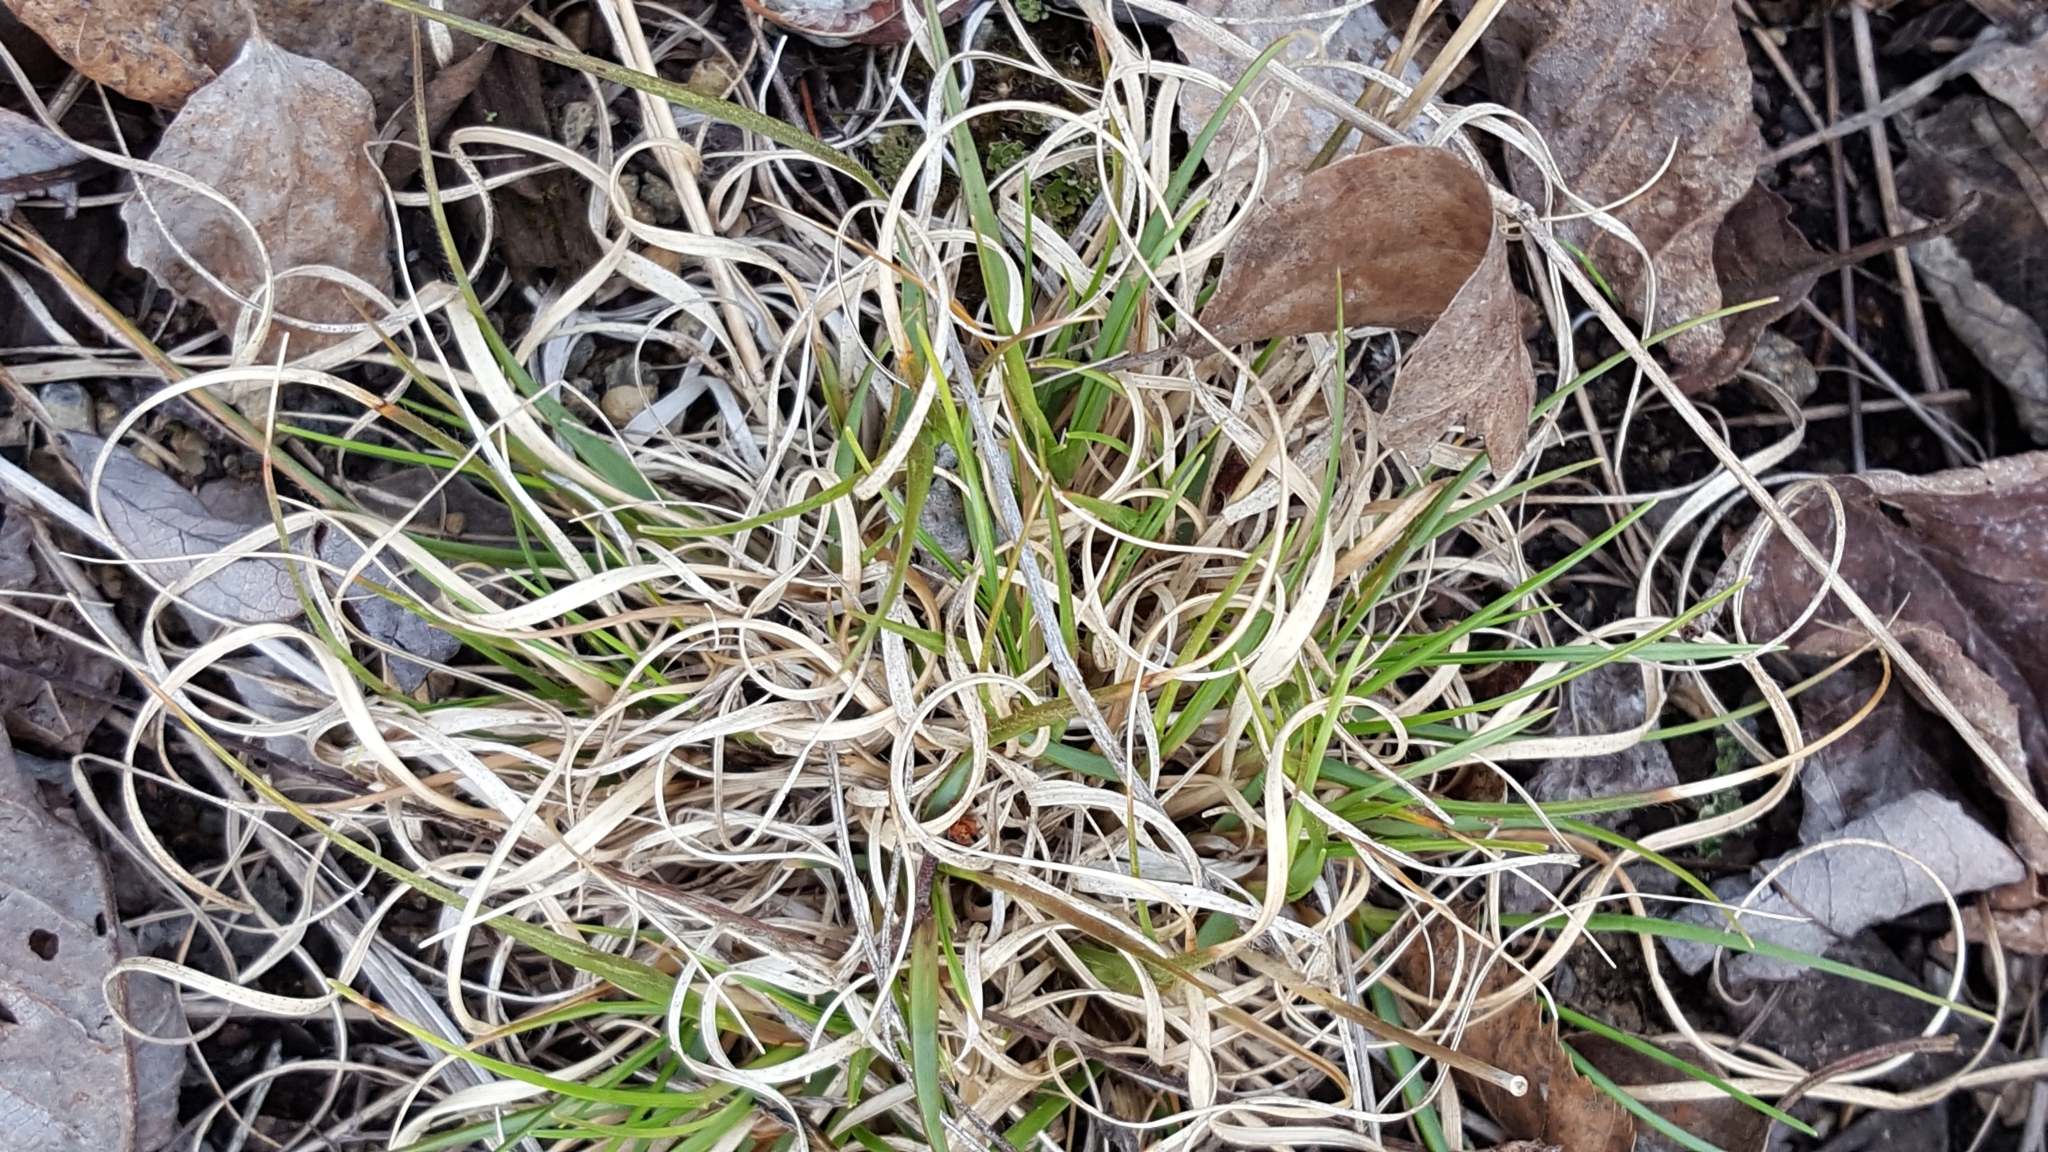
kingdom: Plantae
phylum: Tracheophyta
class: Liliopsida
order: Poales
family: Poaceae
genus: Danthonia
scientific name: Danthonia spicata
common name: Common wild oatgrass
